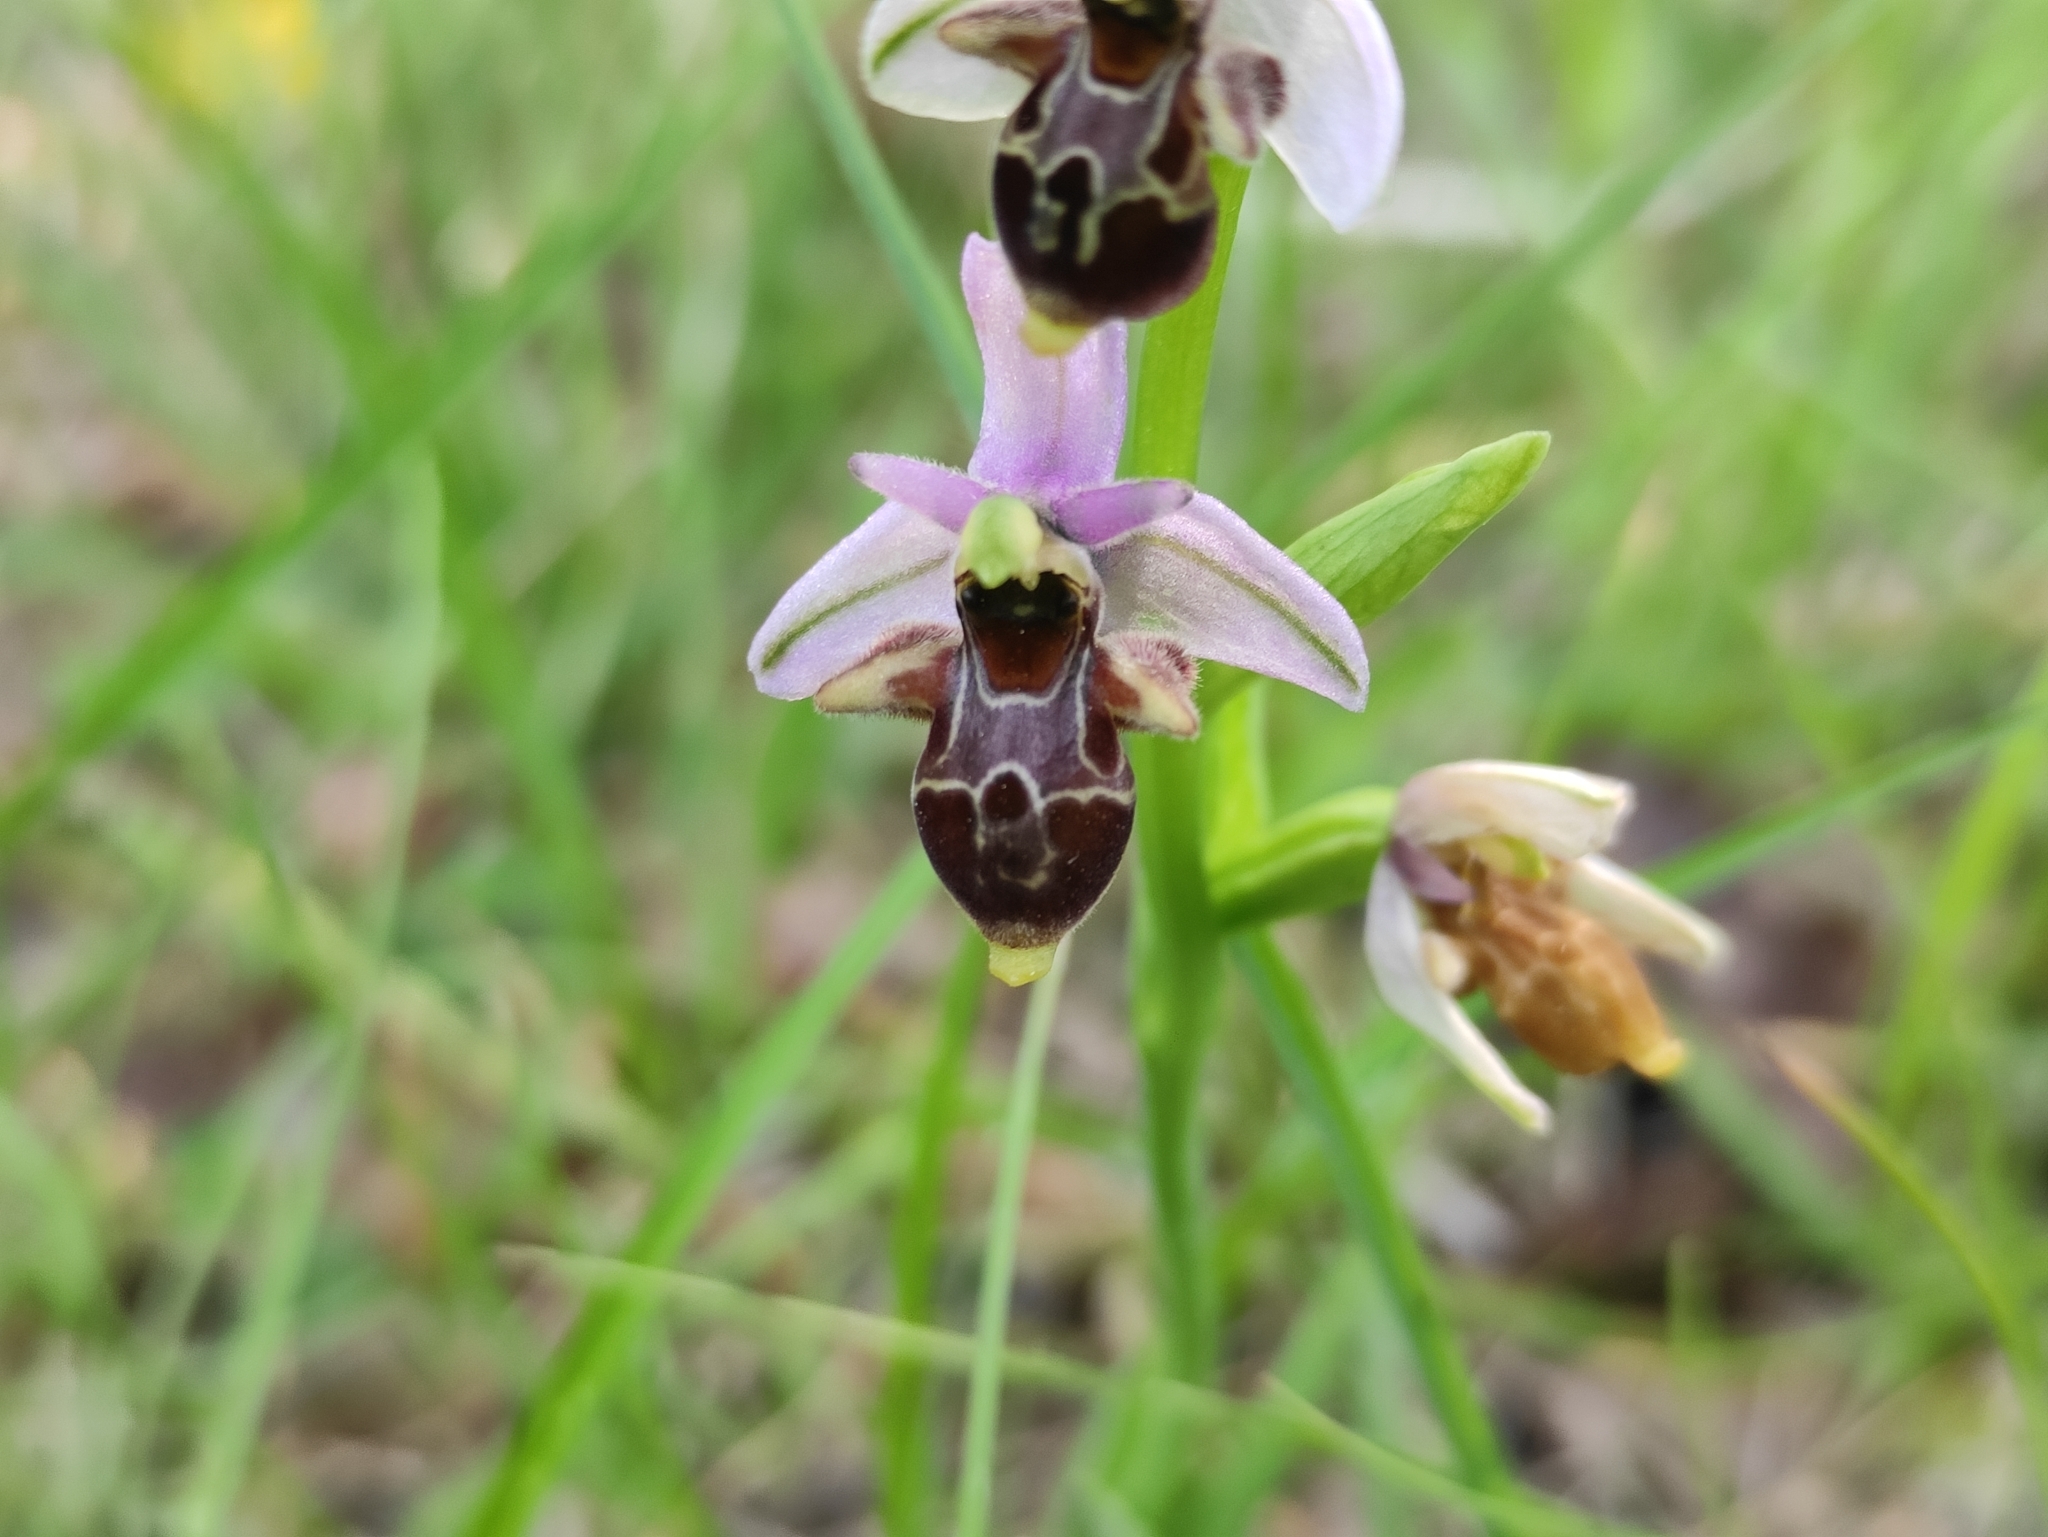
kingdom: Plantae
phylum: Tracheophyta
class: Liliopsida
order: Asparagales
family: Orchidaceae
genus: Ophrys
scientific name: Ophrys scolopax
